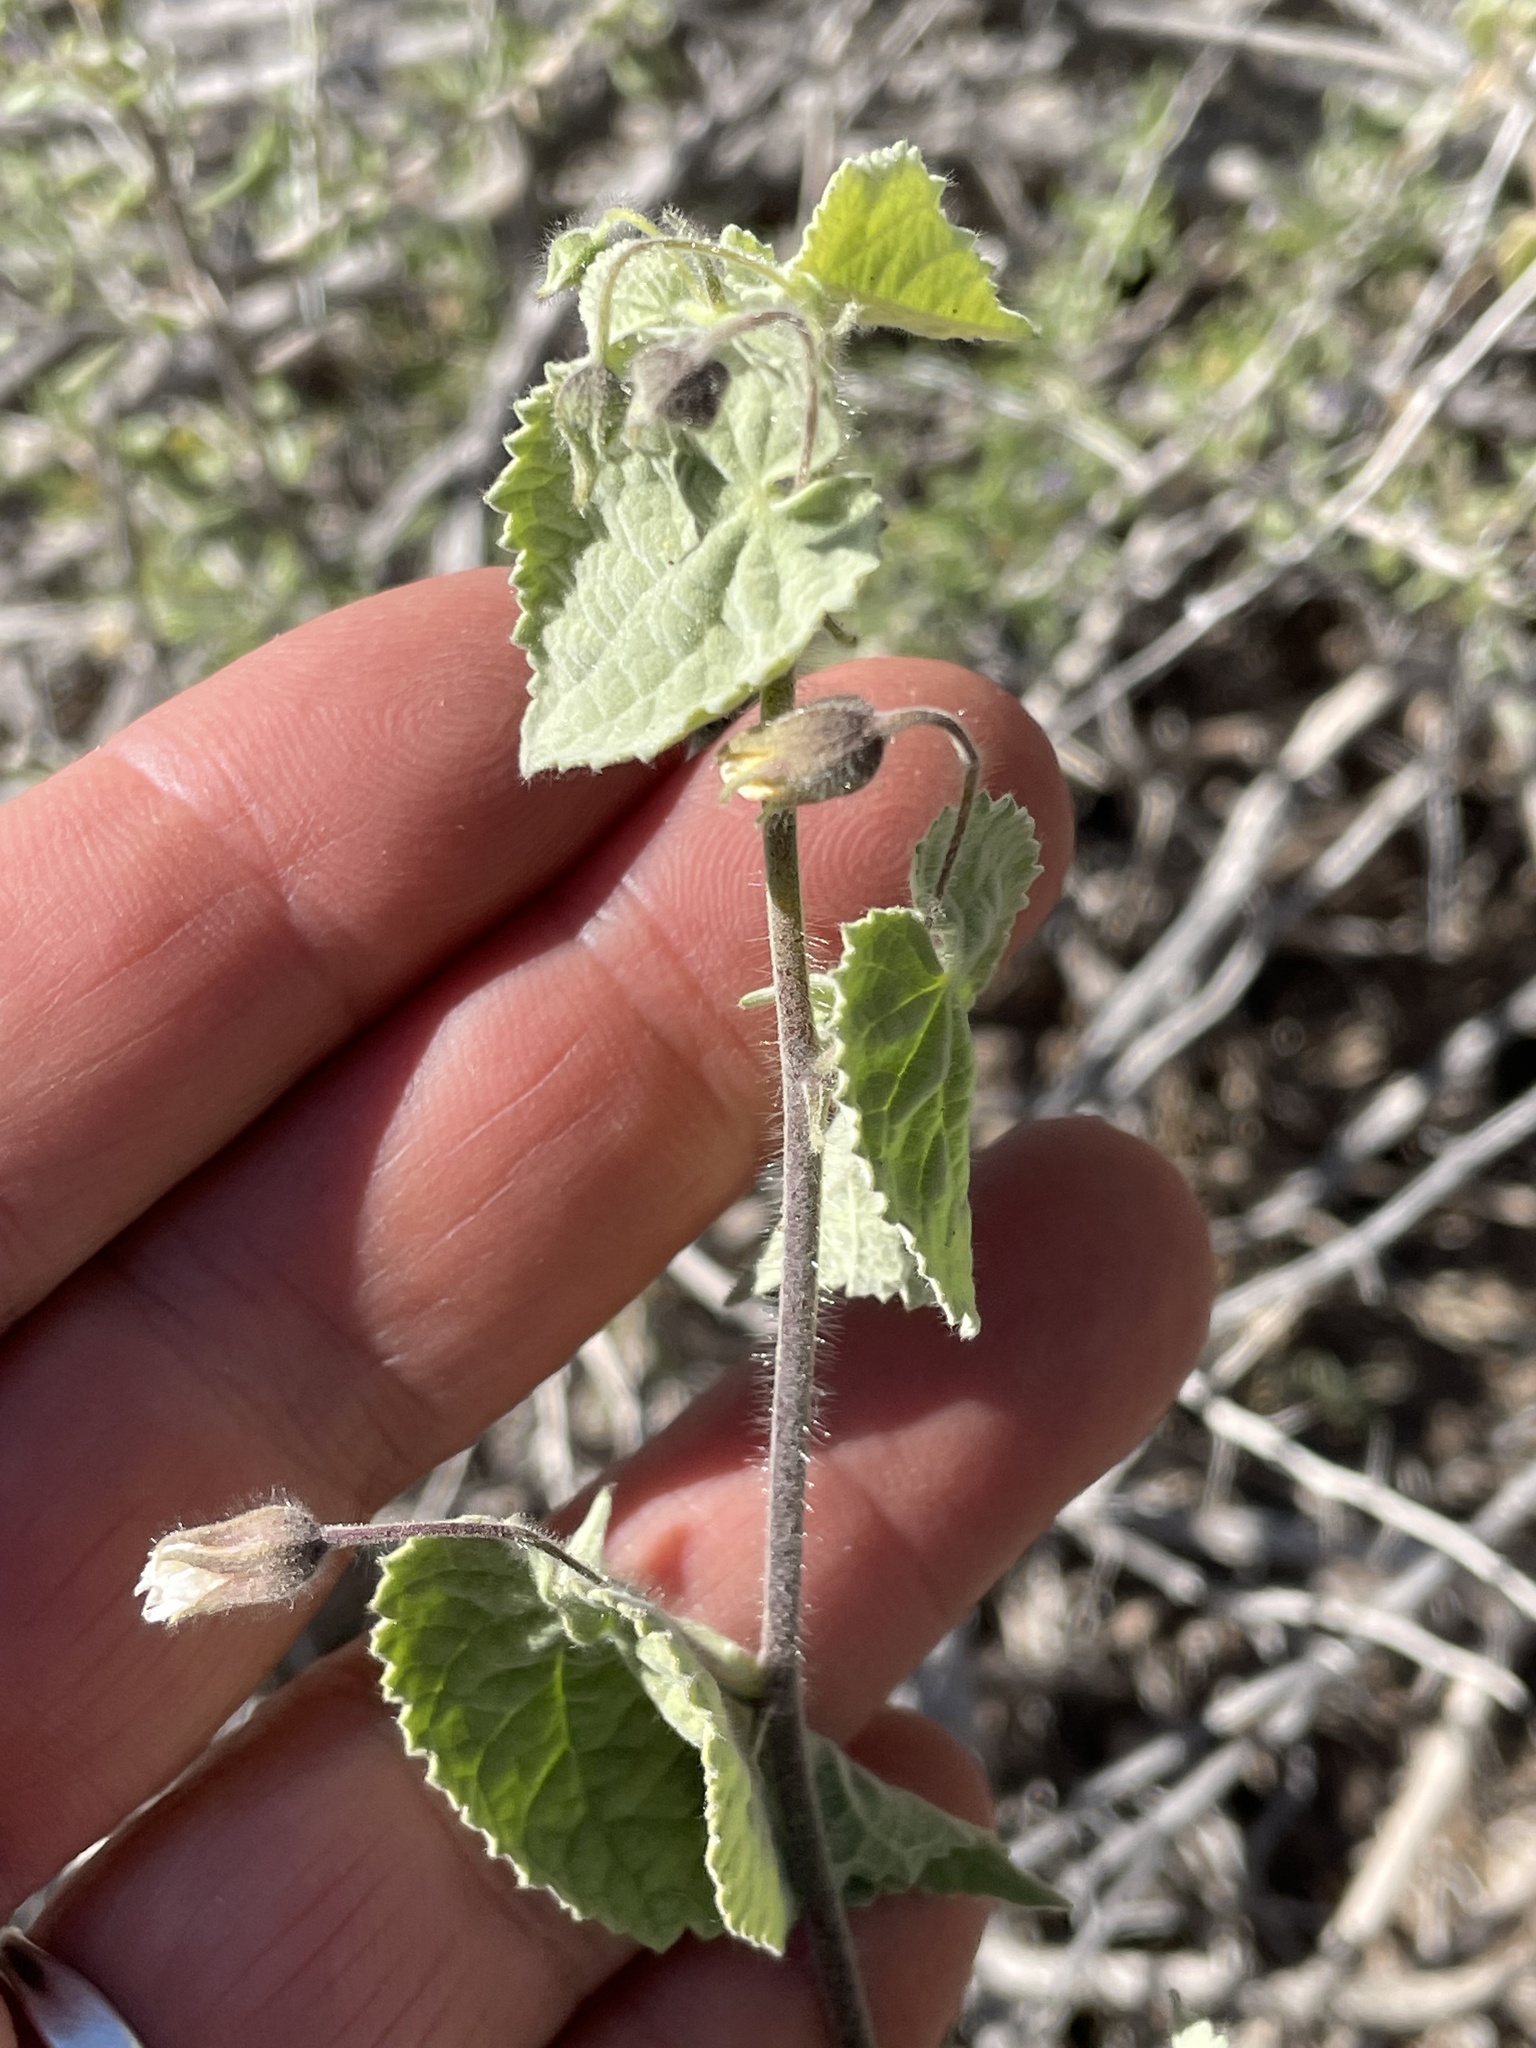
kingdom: Plantae
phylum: Tracheophyta
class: Magnoliopsida
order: Malvales
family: Malvaceae
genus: Herissantia
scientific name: Herissantia crispa
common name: Bladdermallow
